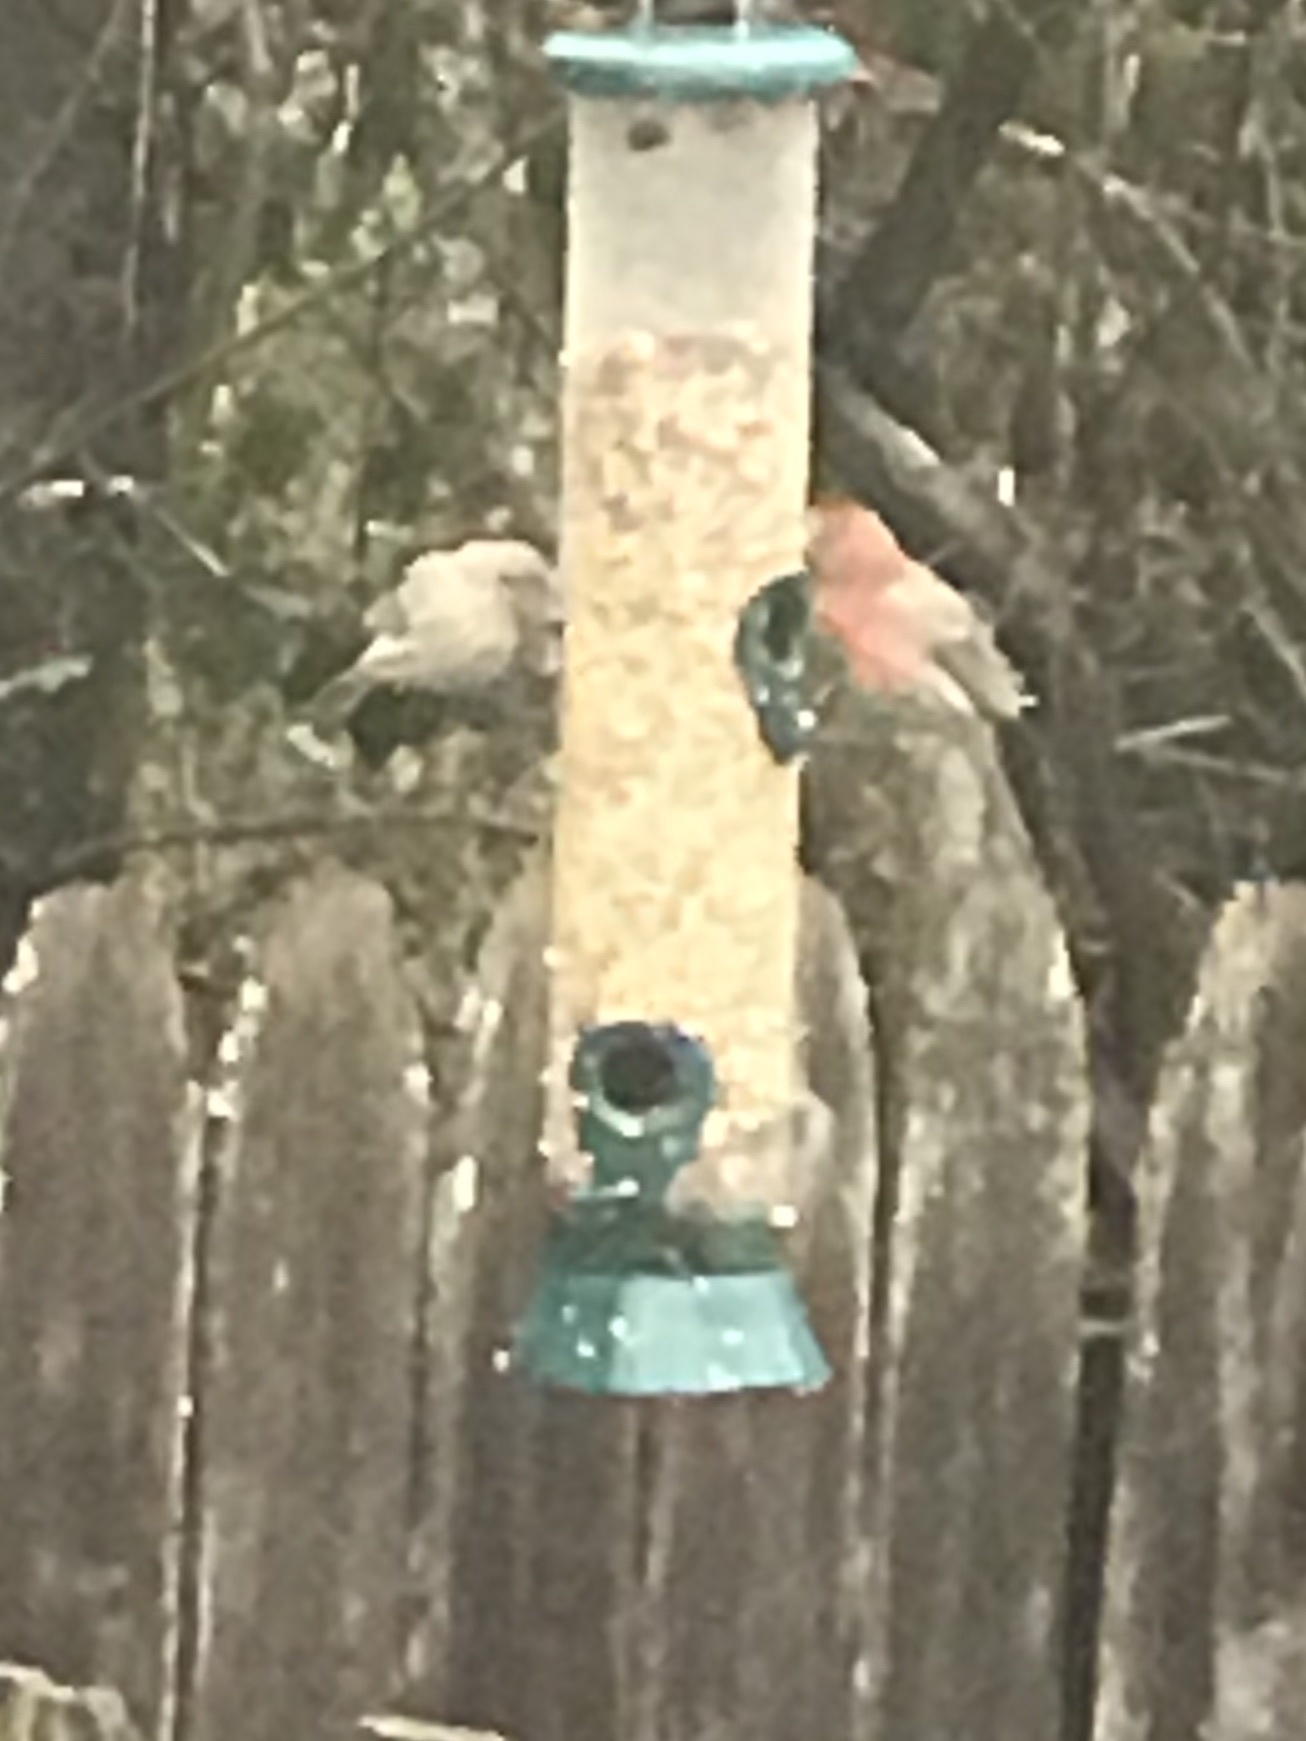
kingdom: Animalia
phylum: Chordata
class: Aves
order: Passeriformes
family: Fringillidae
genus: Haemorhous
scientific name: Haemorhous mexicanus
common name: House finch
